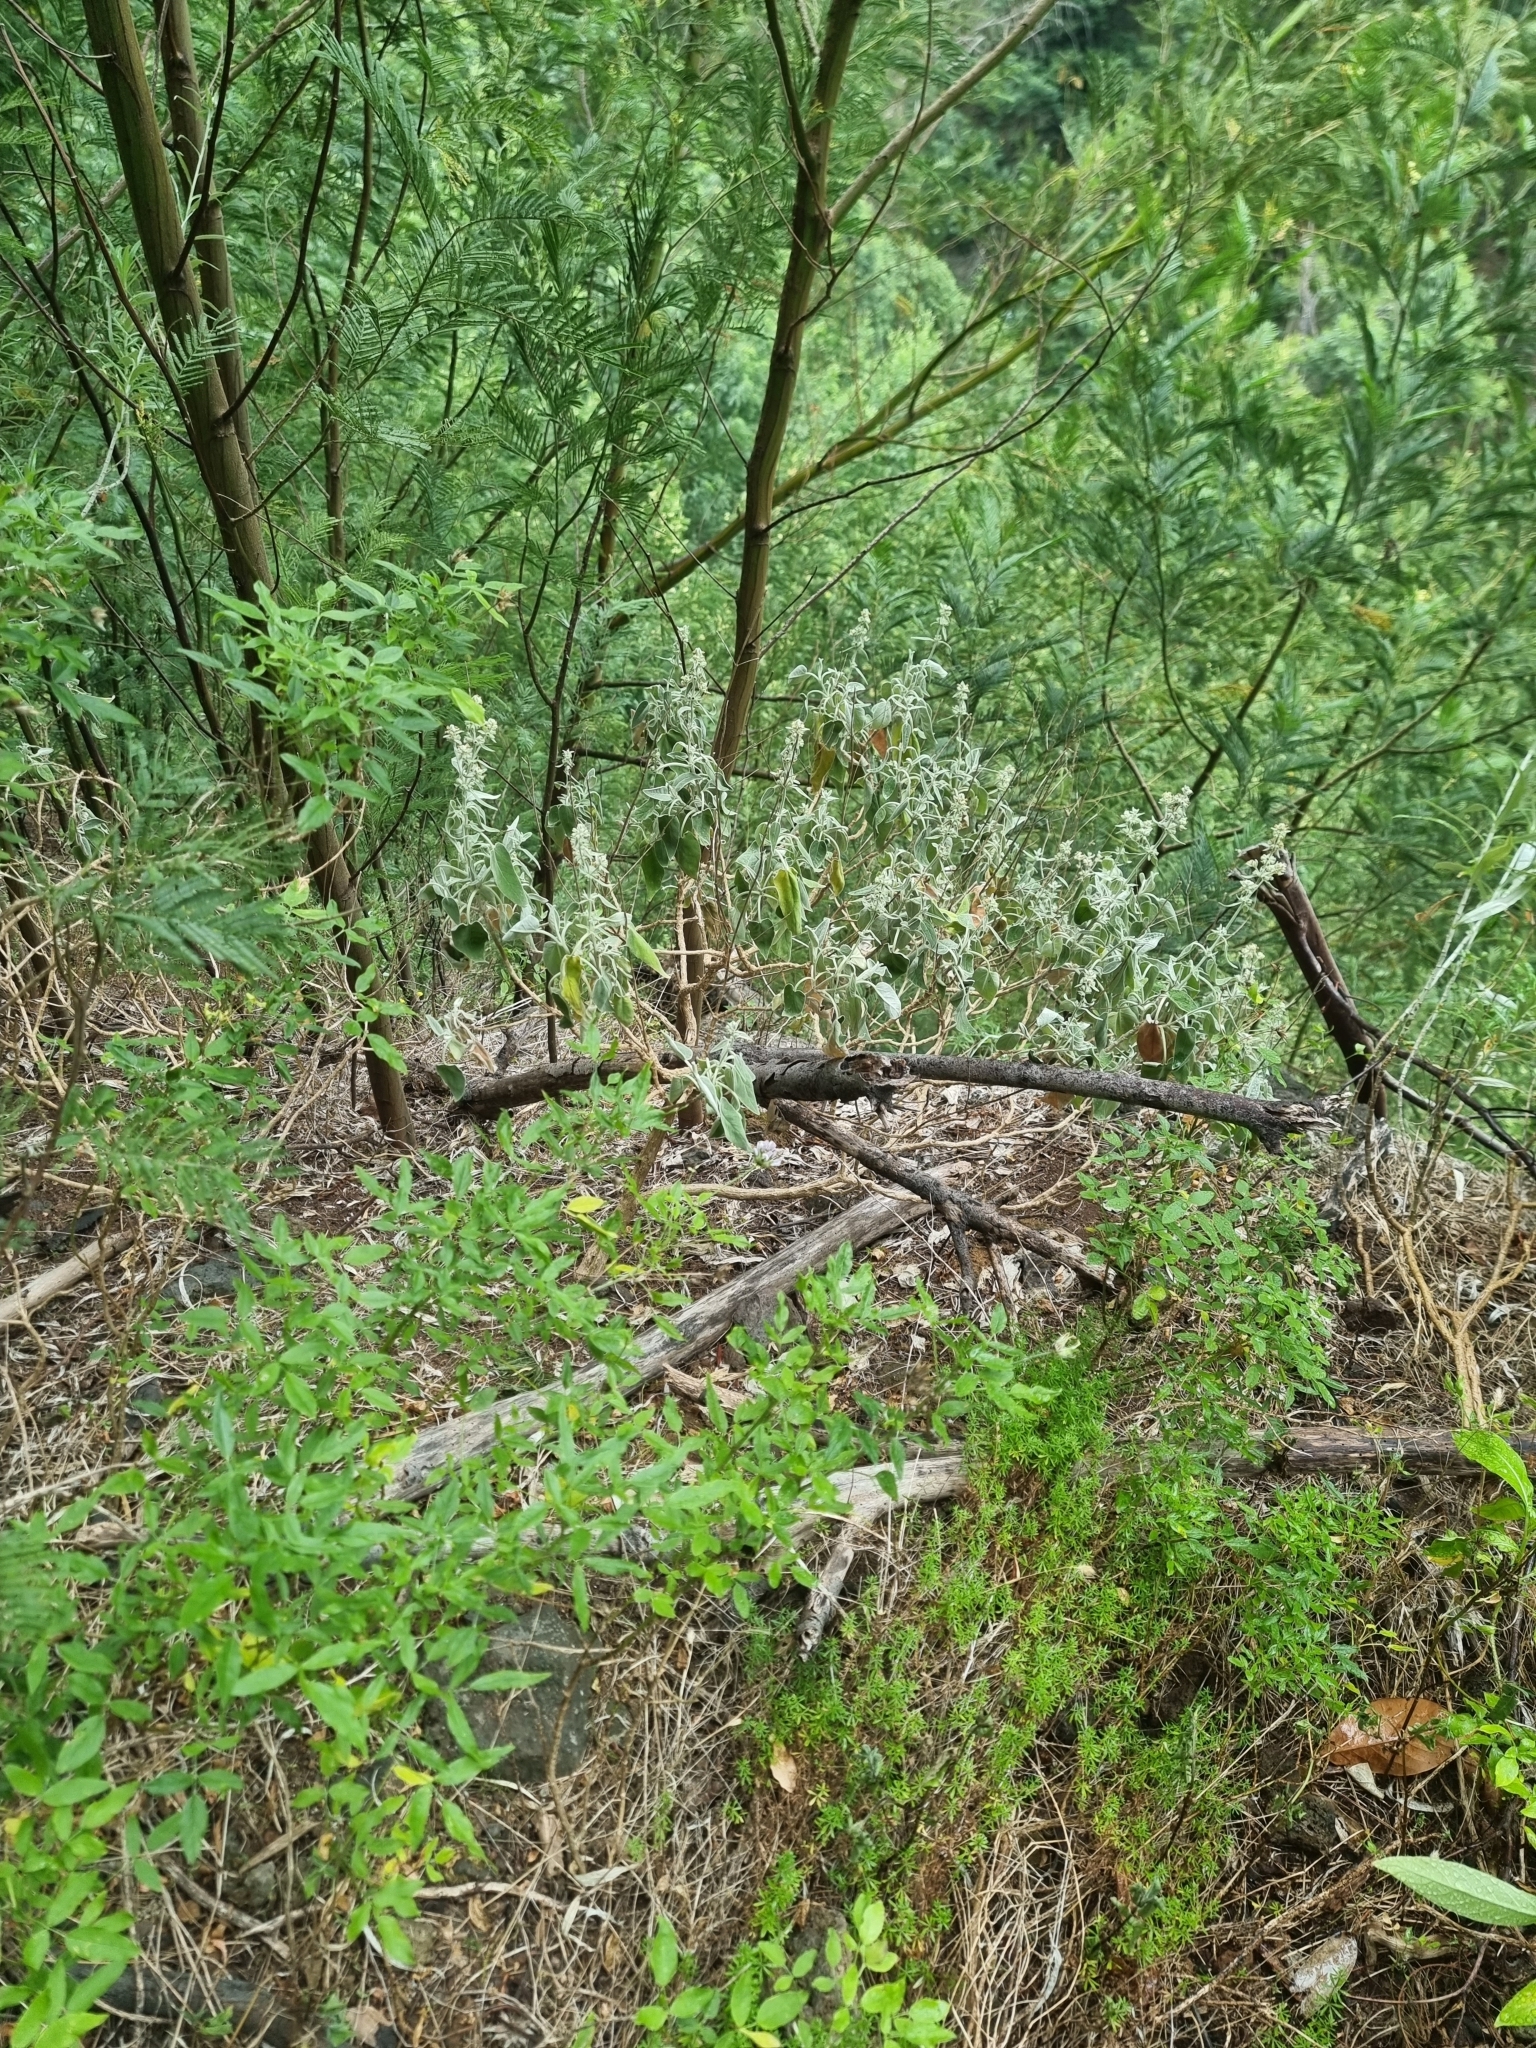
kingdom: Plantae
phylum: Tracheophyta
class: Magnoliopsida
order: Lamiales
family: Lamiaceae
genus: Sideritis
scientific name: Sideritis candicans
